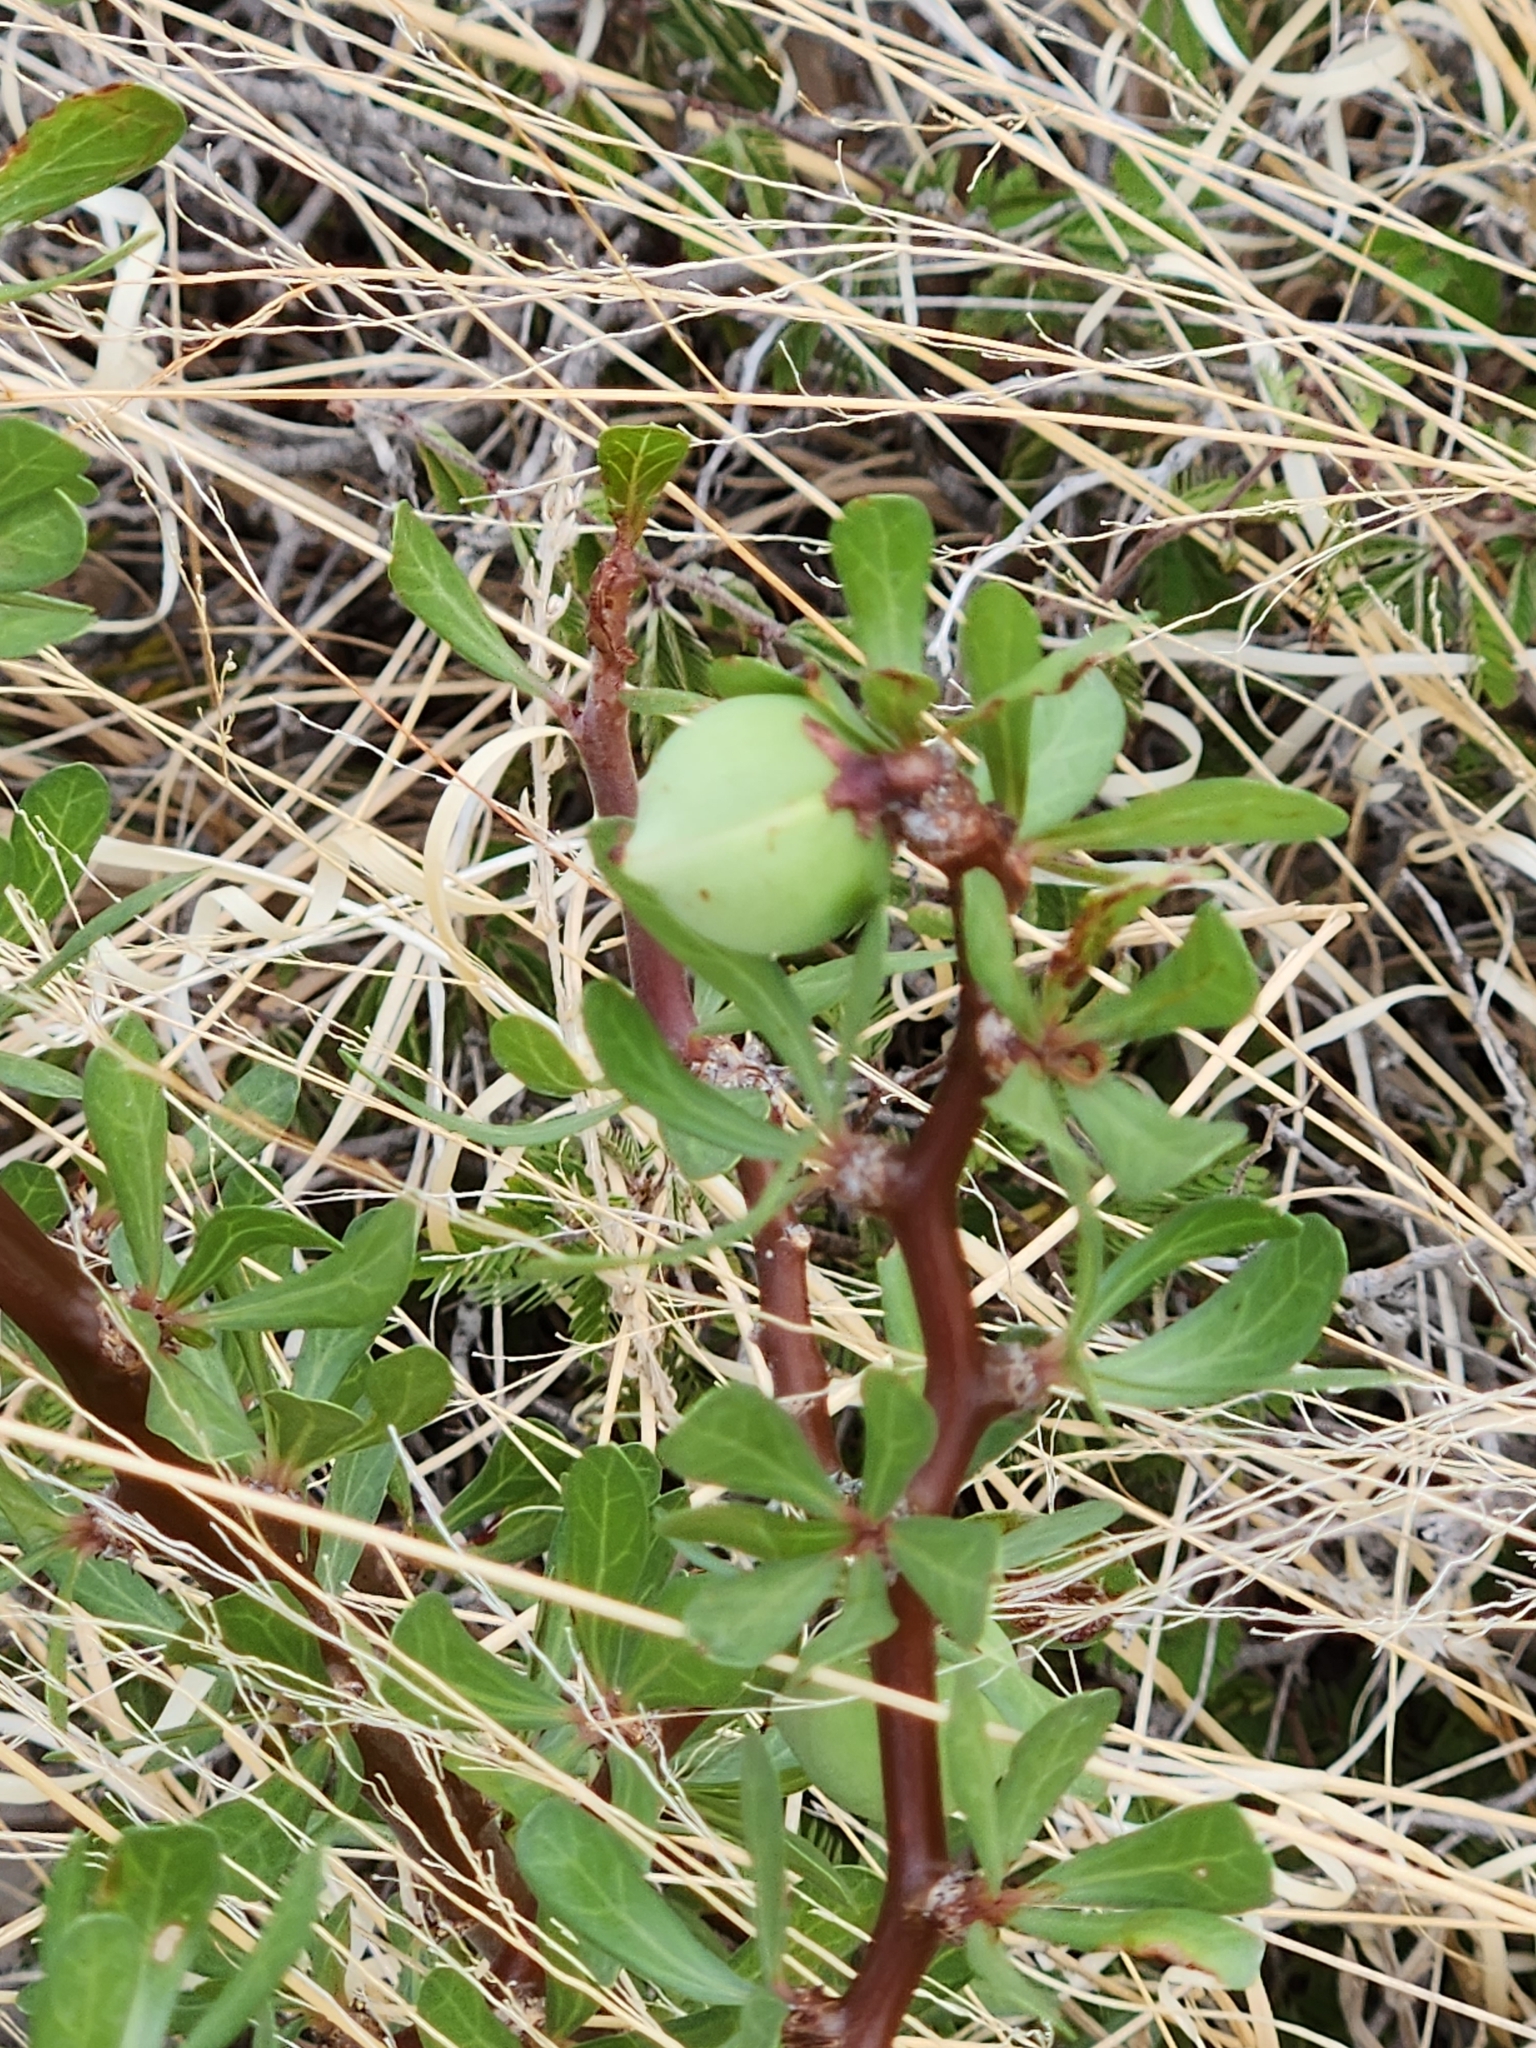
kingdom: Plantae
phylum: Tracheophyta
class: Magnoliopsida
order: Malpighiales
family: Euphorbiaceae
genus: Jatropha
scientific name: Jatropha dioica
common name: Leatherstem
